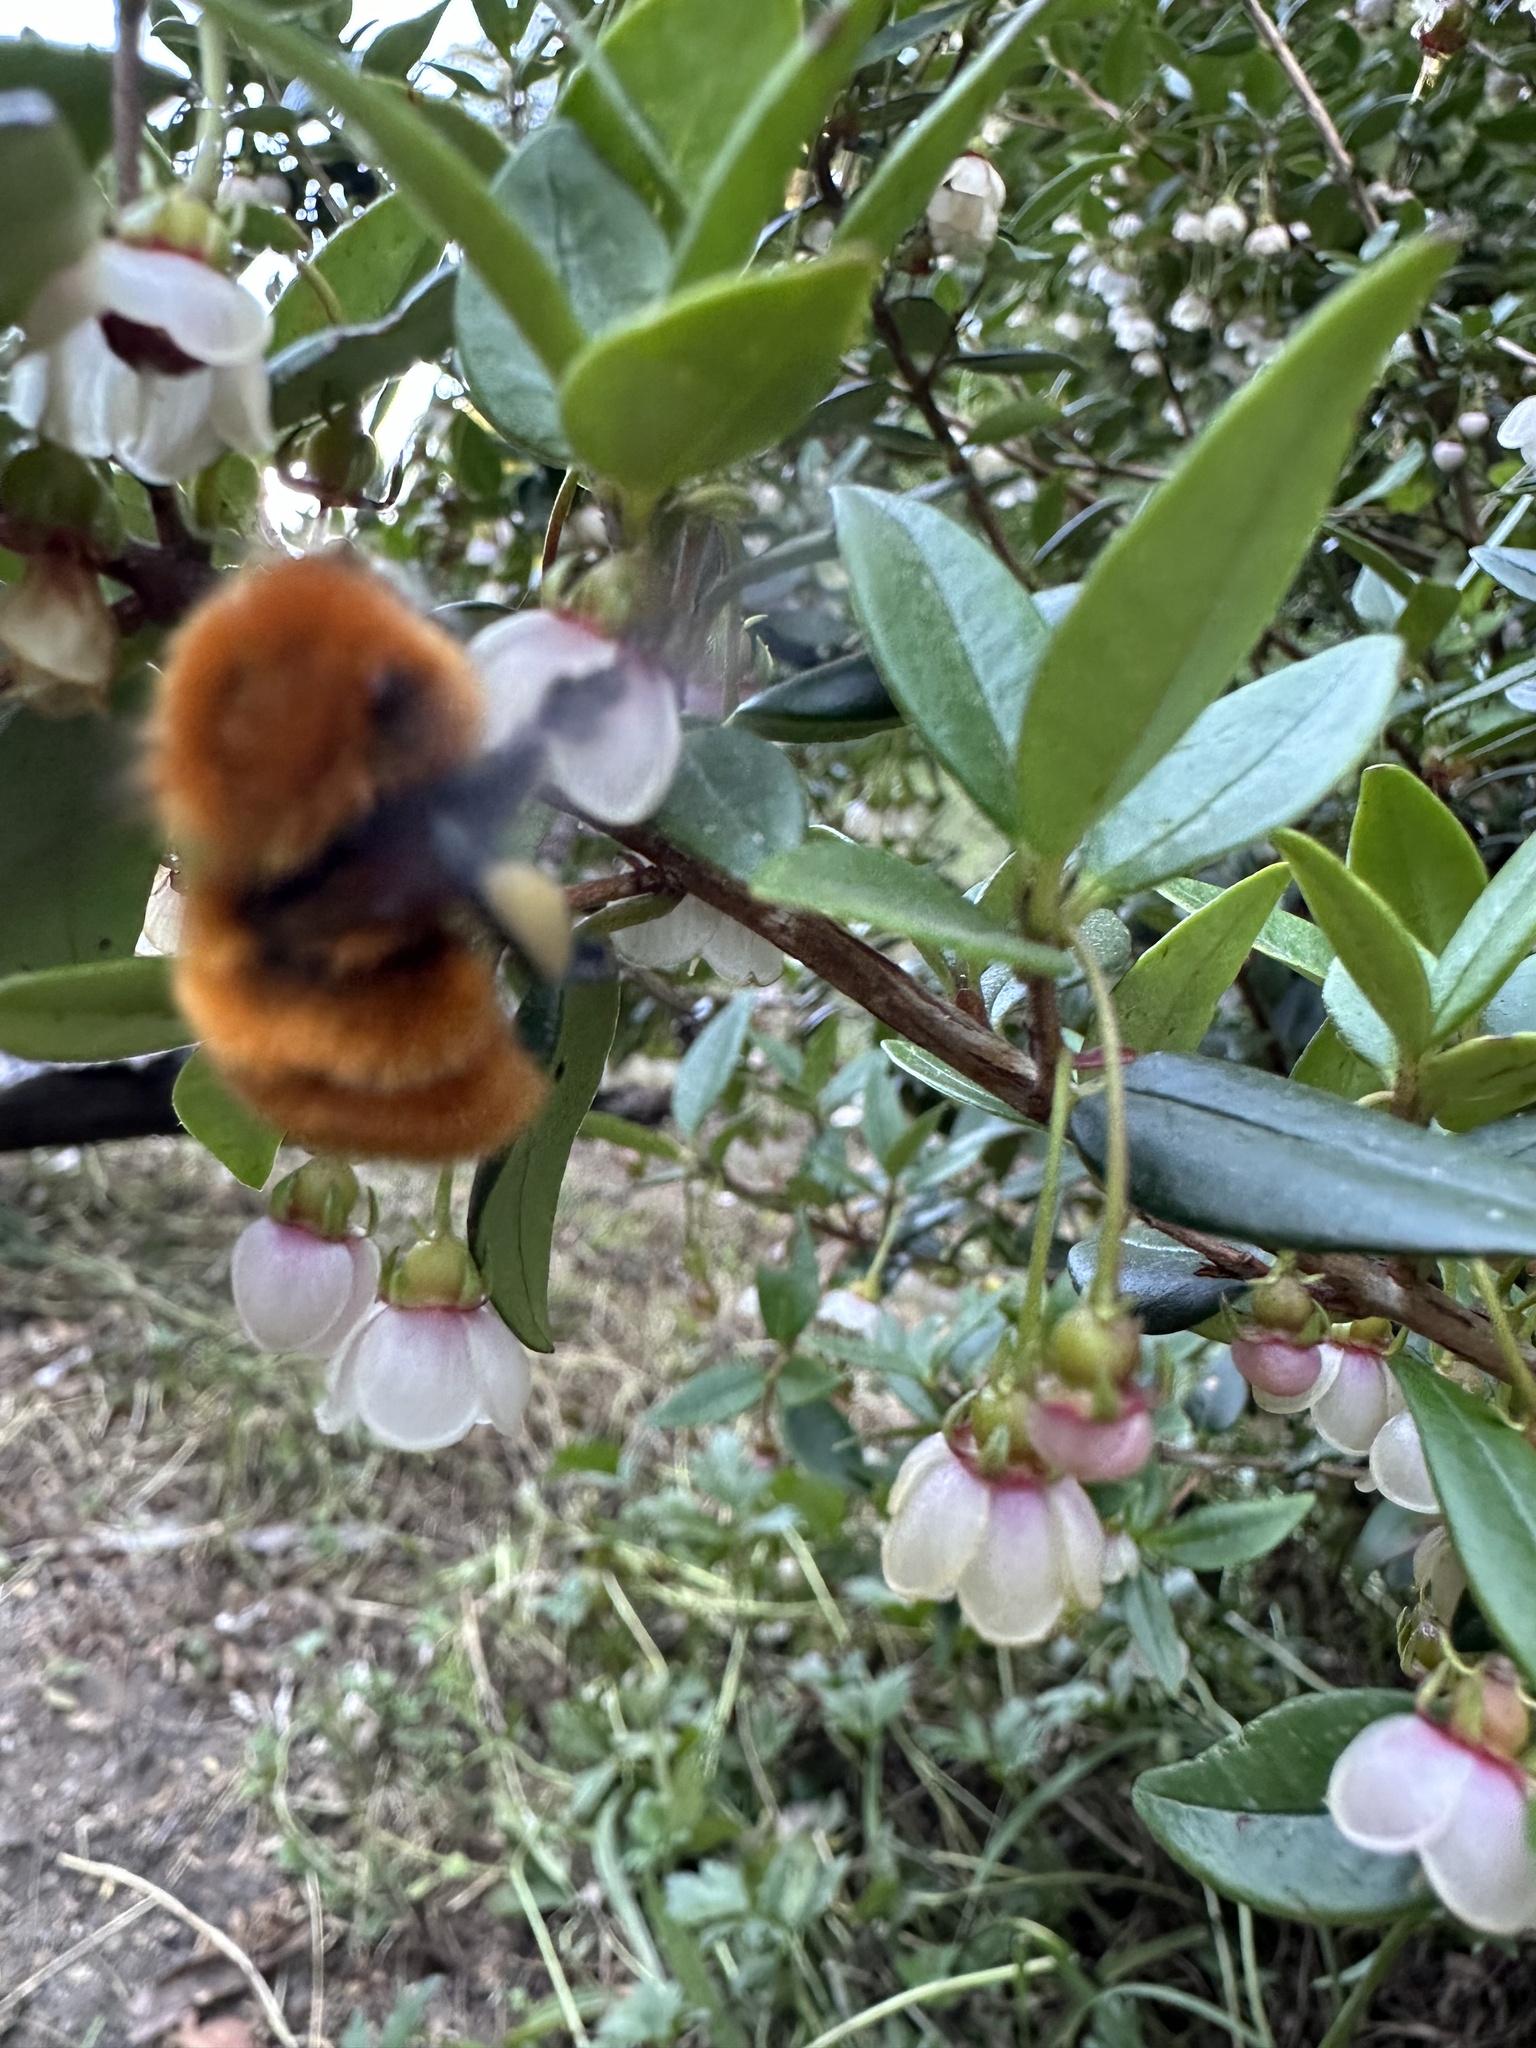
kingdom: Animalia
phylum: Arthropoda
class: Insecta
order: Hymenoptera
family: Apidae
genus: Bombus
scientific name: Bombus dahlbomii
